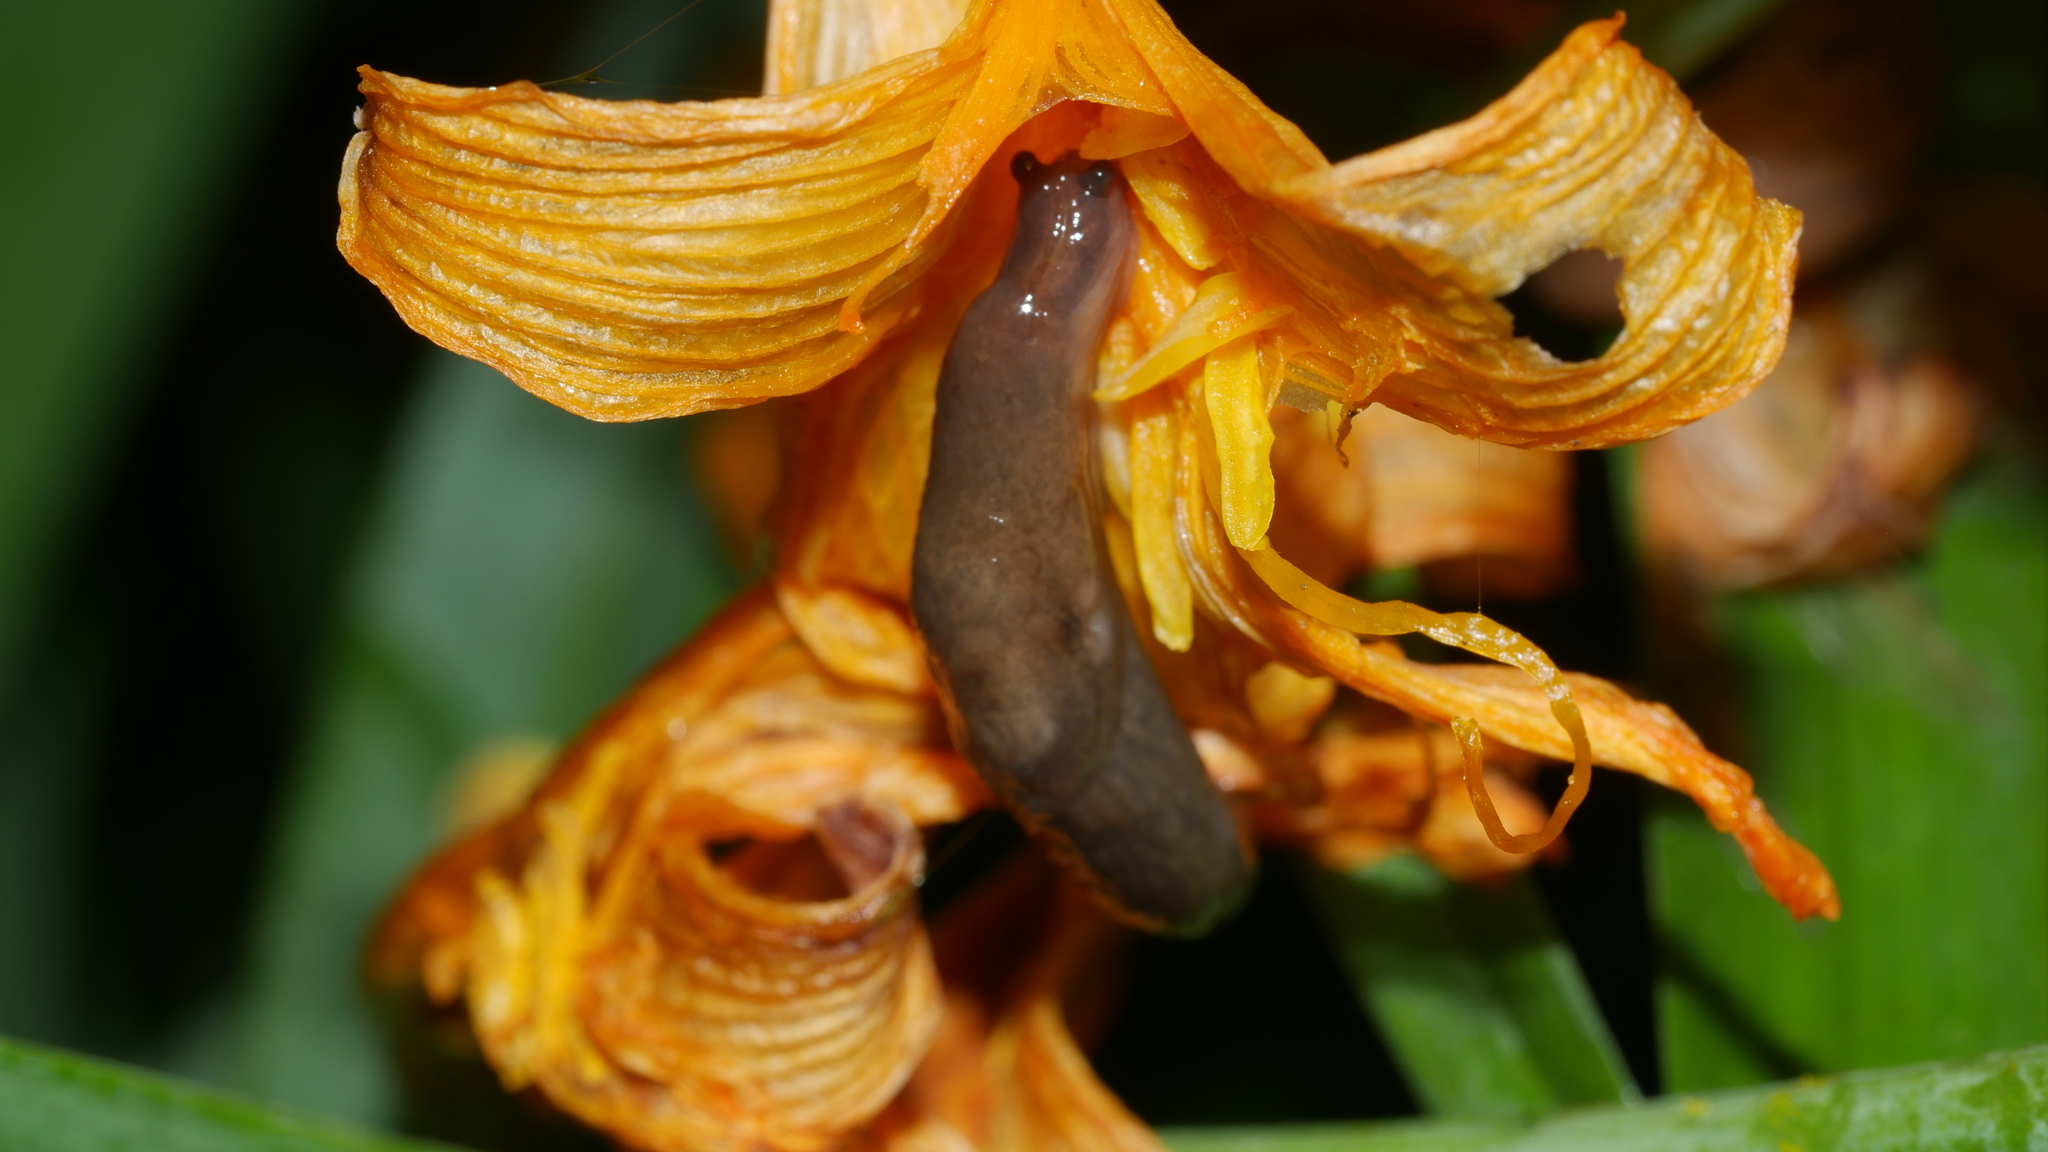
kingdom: Animalia
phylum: Mollusca
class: Gastropoda
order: Stylommatophora
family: Agriolimacidae
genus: Deroceras
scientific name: Deroceras laeve
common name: Marsh slug
